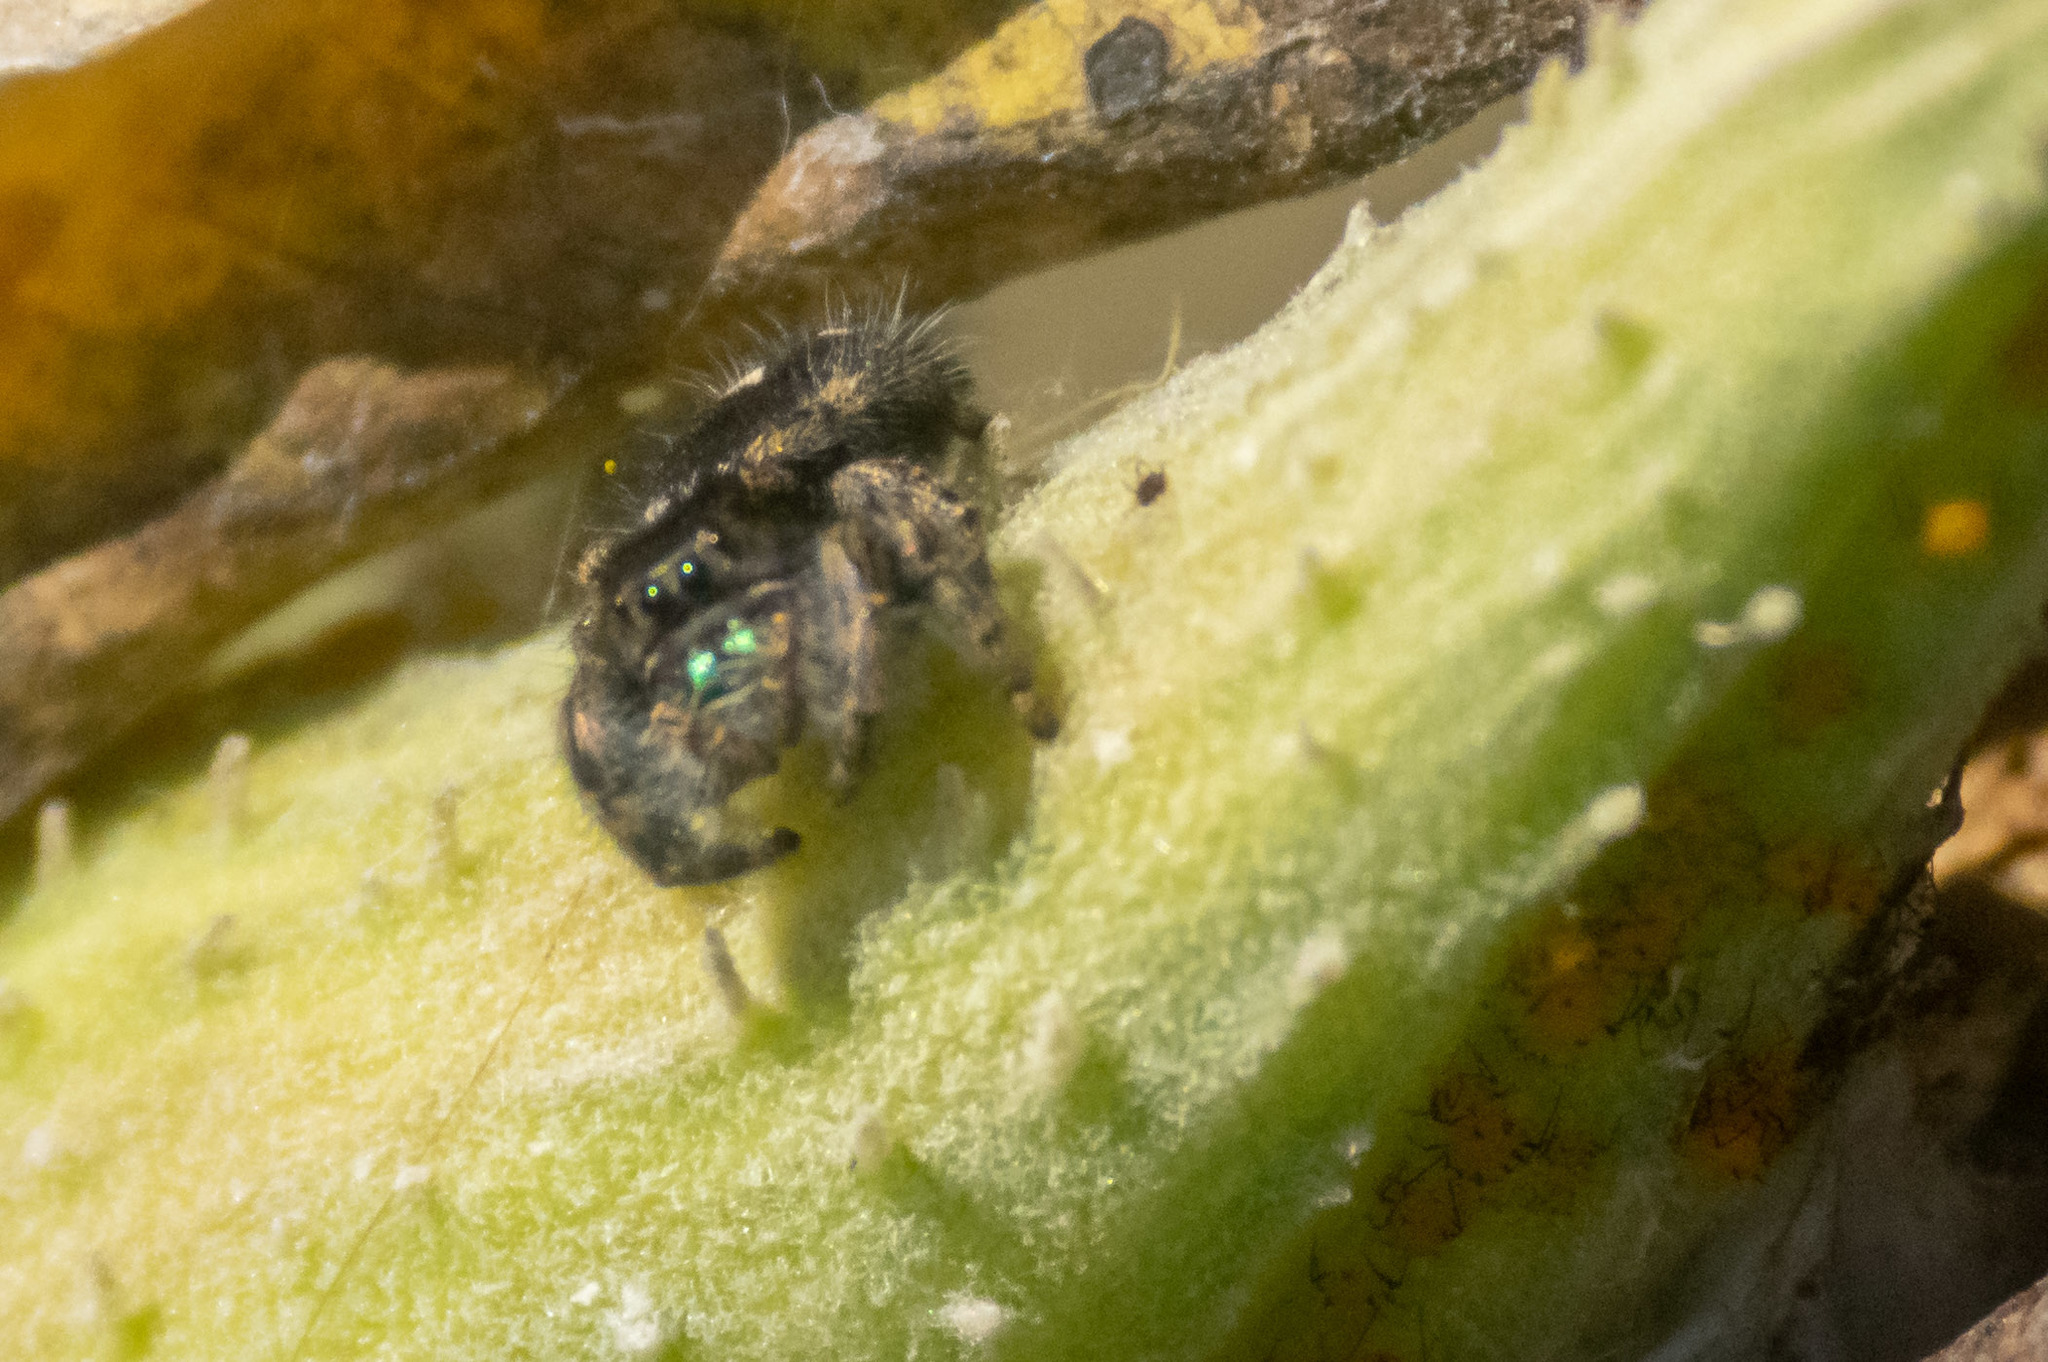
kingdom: Animalia
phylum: Arthropoda
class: Arachnida
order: Araneae
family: Salticidae
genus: Phidippus
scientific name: Phidippus audax
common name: Bold jumper
